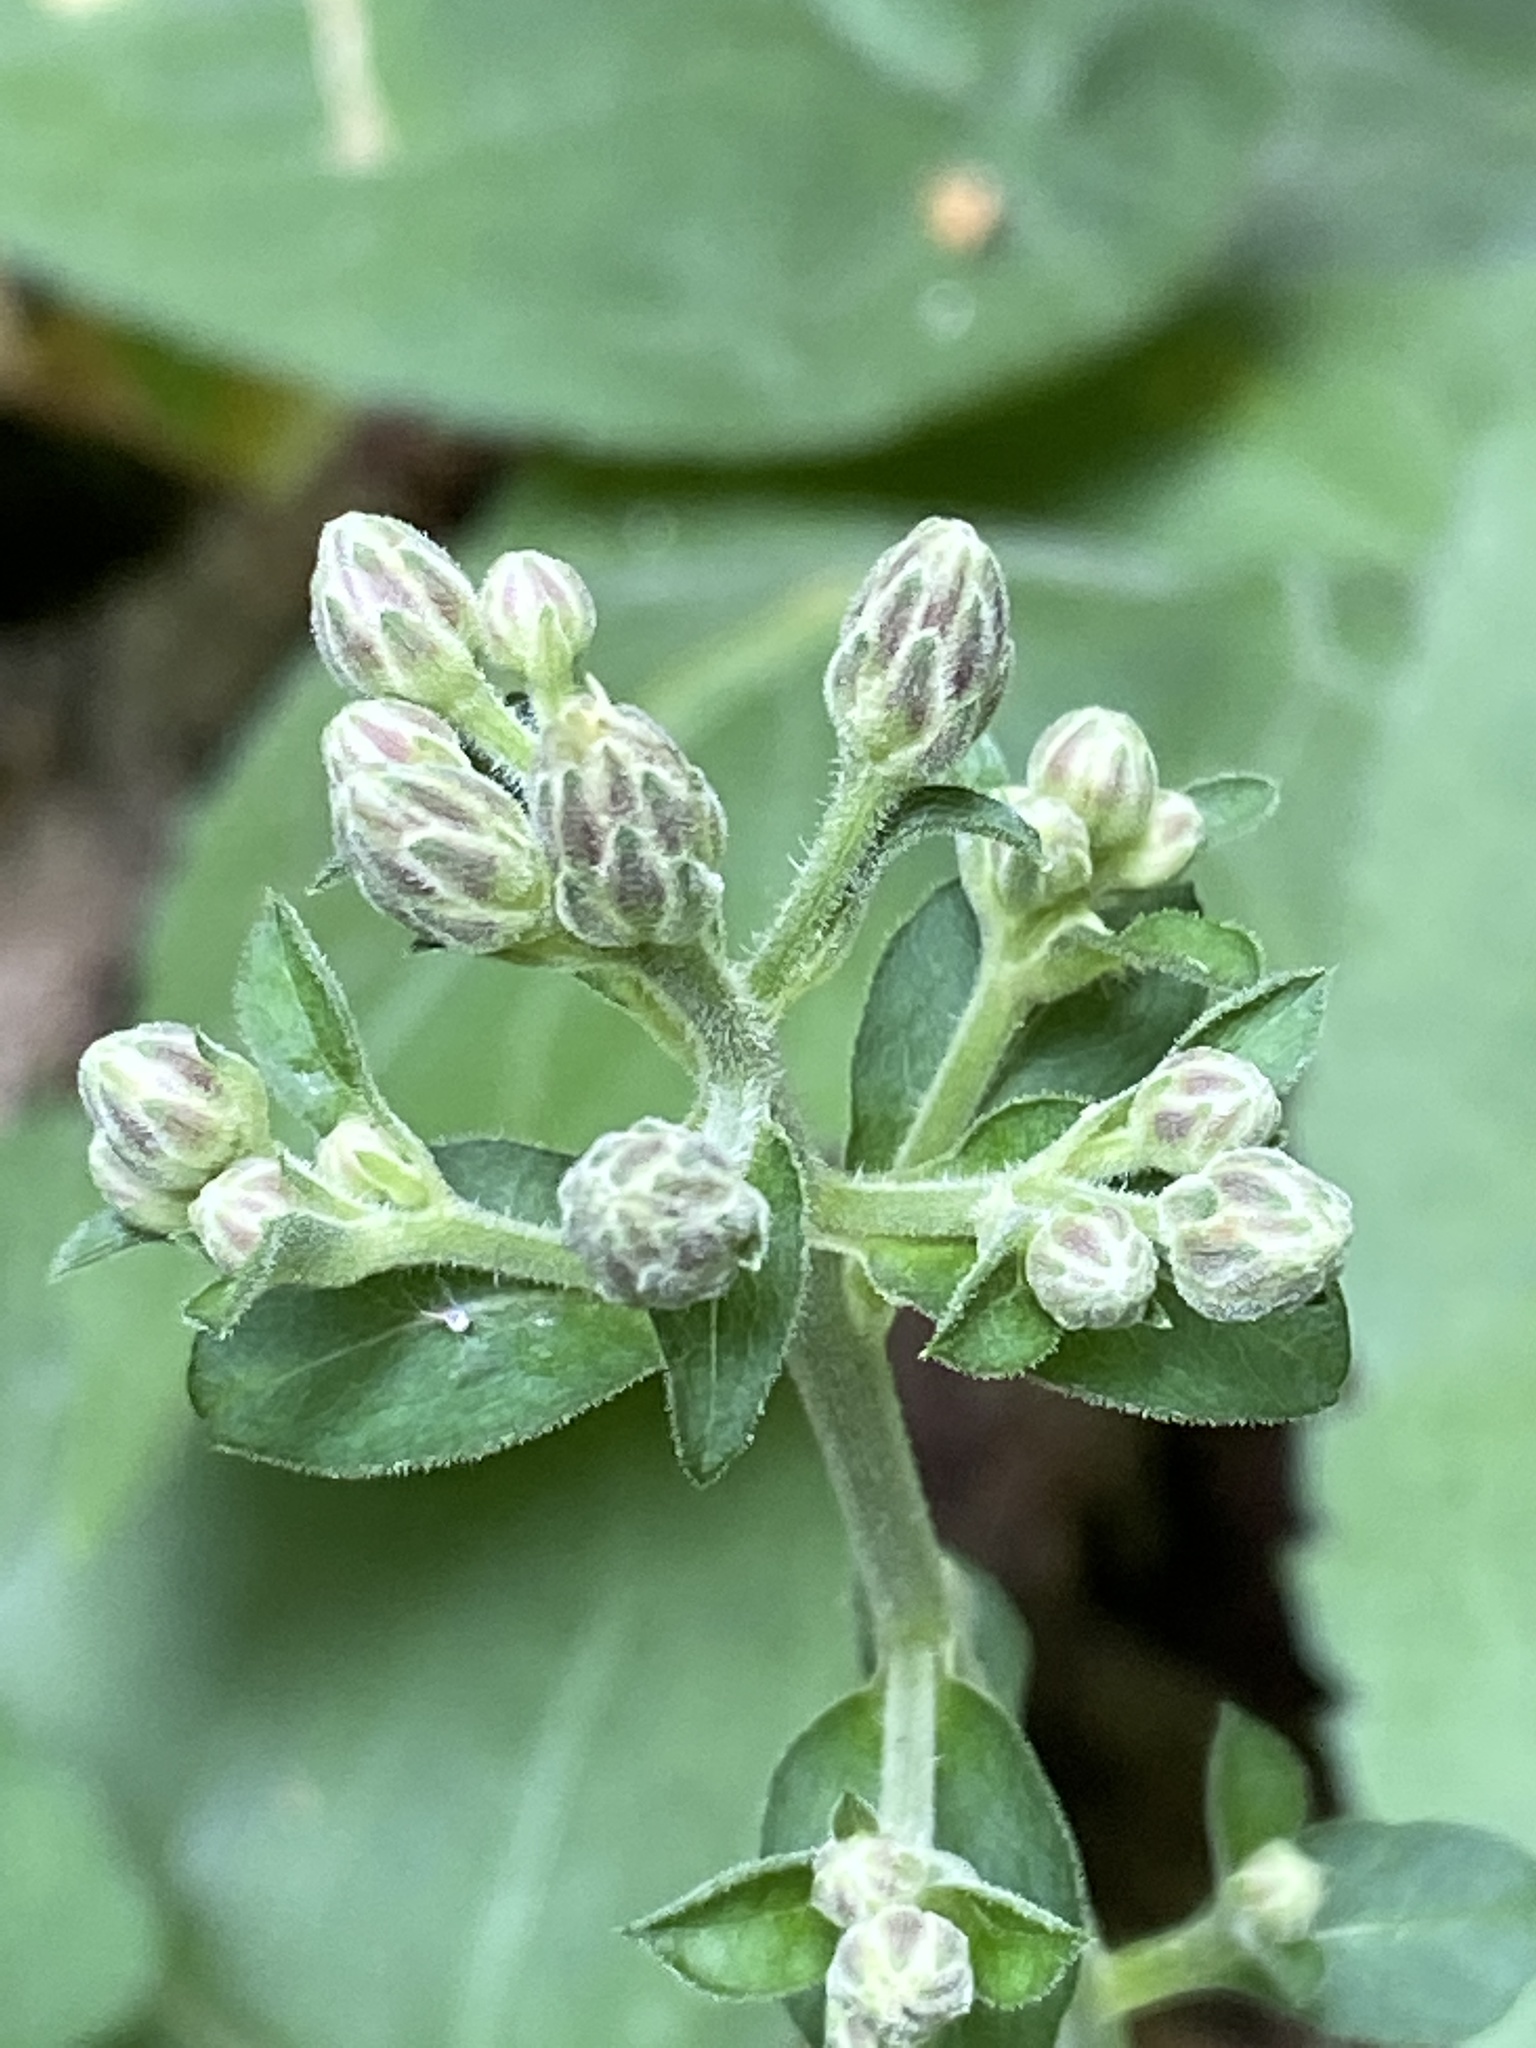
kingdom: Plantae
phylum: Tracheophyta
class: Magnoliopsida
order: Asterales
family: Asteraceae
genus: Eurybia
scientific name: Eurybia macrophylla
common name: Big-leaved aster
